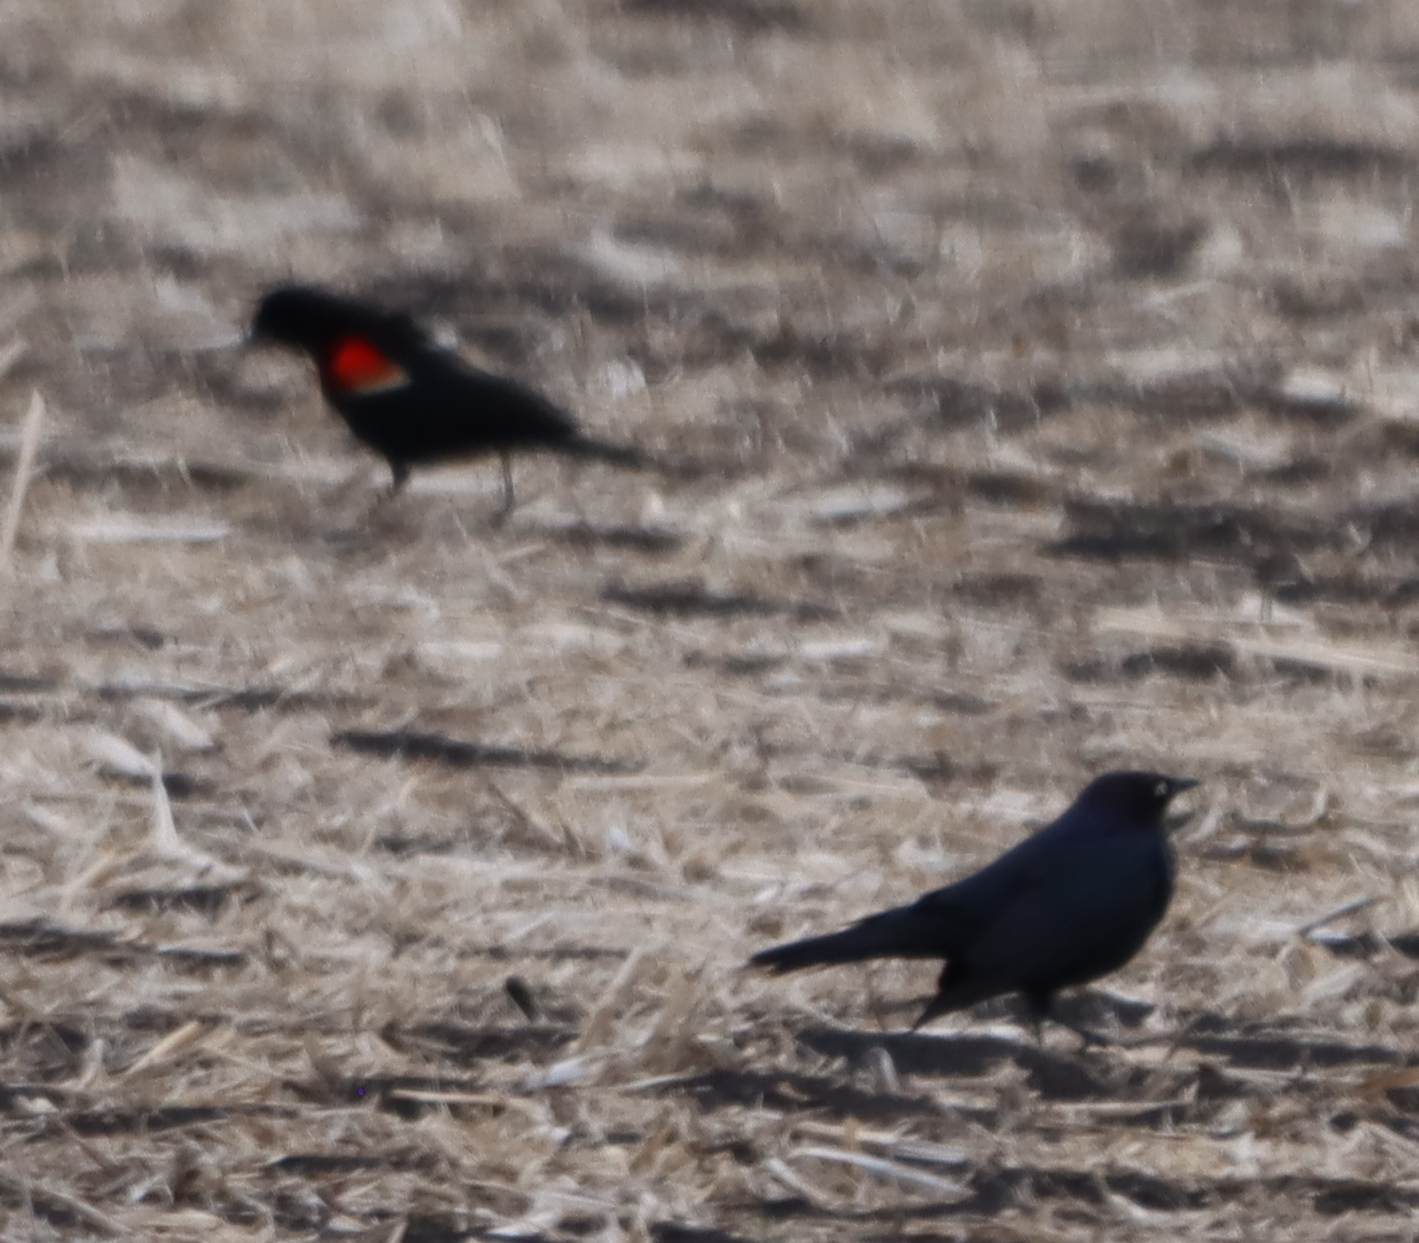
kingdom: Animalia
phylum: Chordata
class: Aves
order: Passeriformes
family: Icteridae
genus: Agelaius
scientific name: Agelaius phoeniceus
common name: Red-winged blackbird
